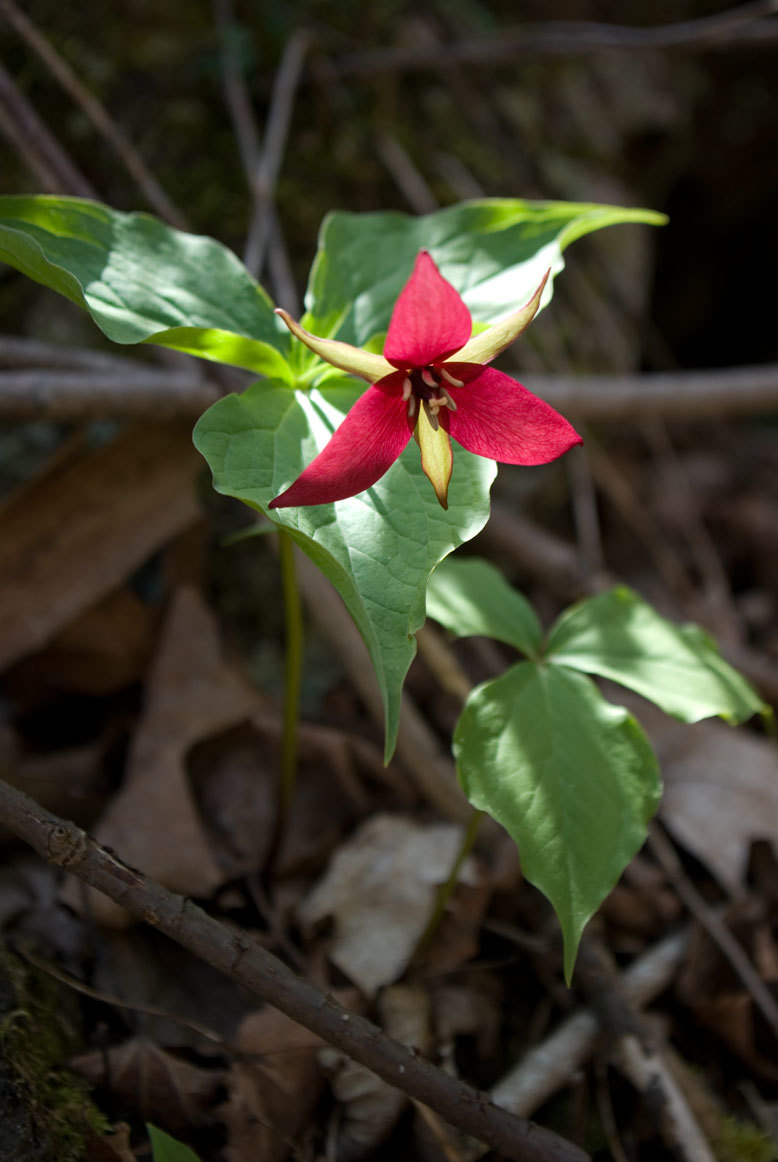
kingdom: Plantae
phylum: Tracheophyta
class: Liliopsida
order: Liliales
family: Melanthiaceae
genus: Trillium
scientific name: Trillium erectum
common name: Purple trillium
